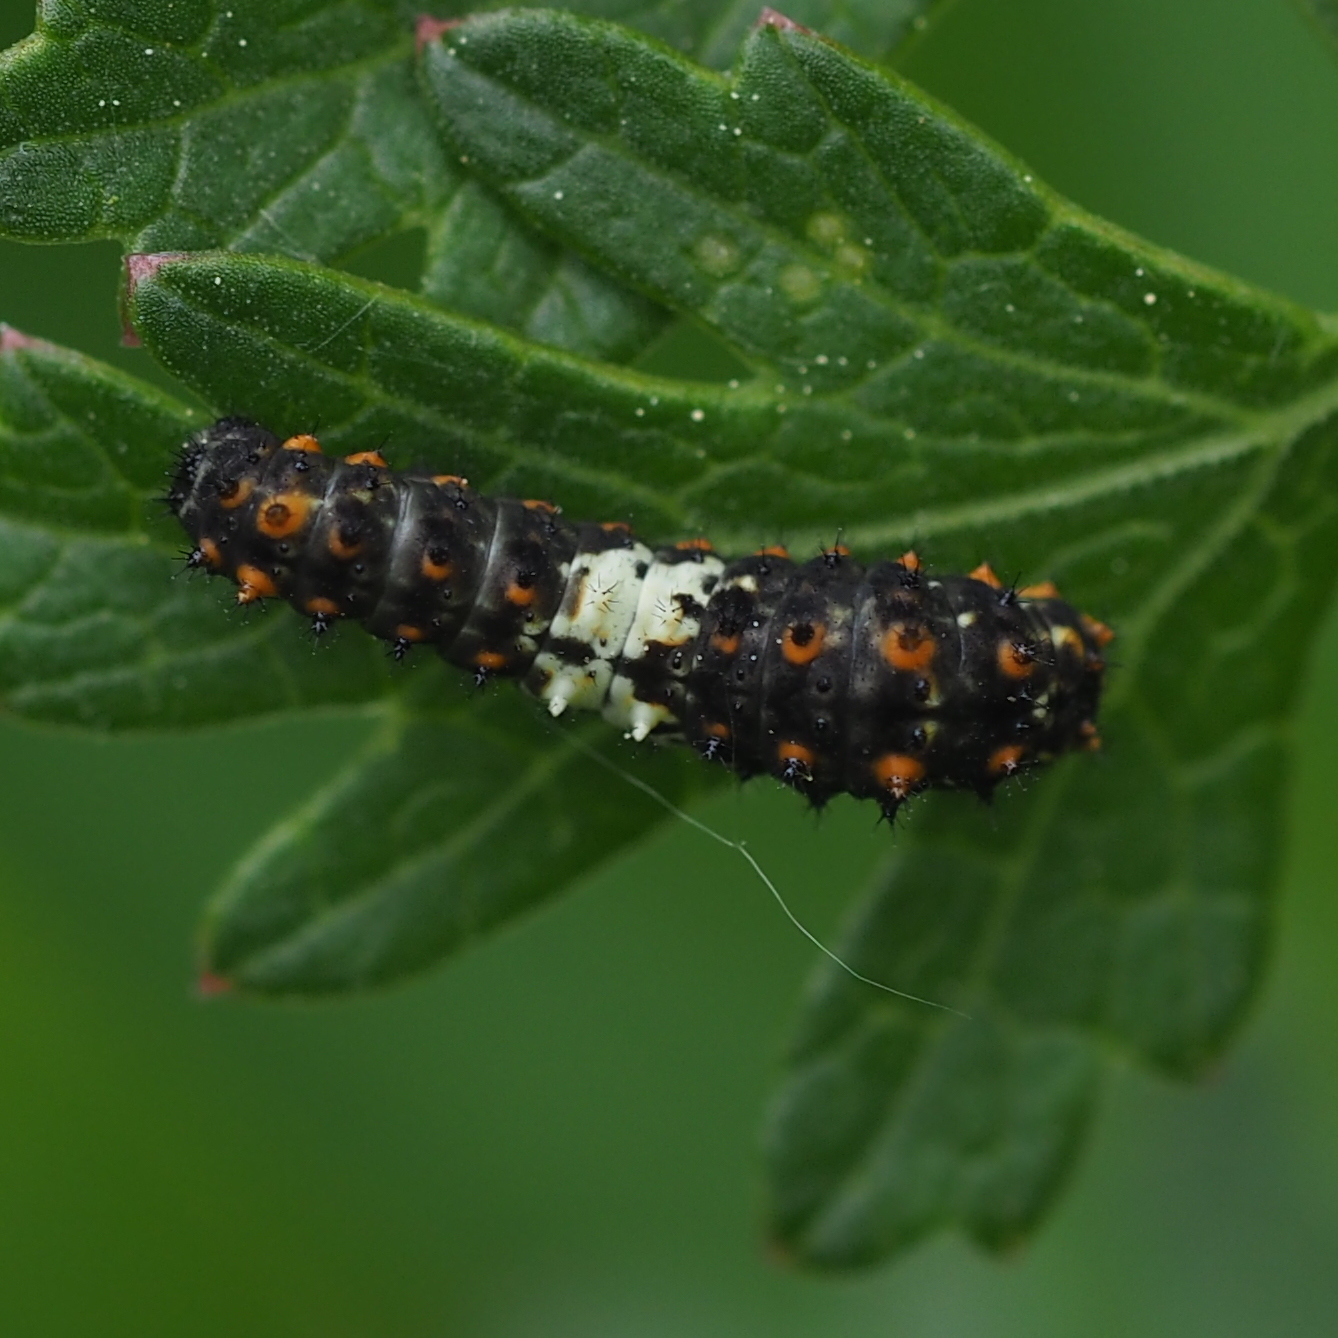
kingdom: Animalia
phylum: Arthropoda
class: Insecta
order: Lepidoptera
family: Papilionidae
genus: Papilio
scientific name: Papilio machaon
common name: Swallowtail
